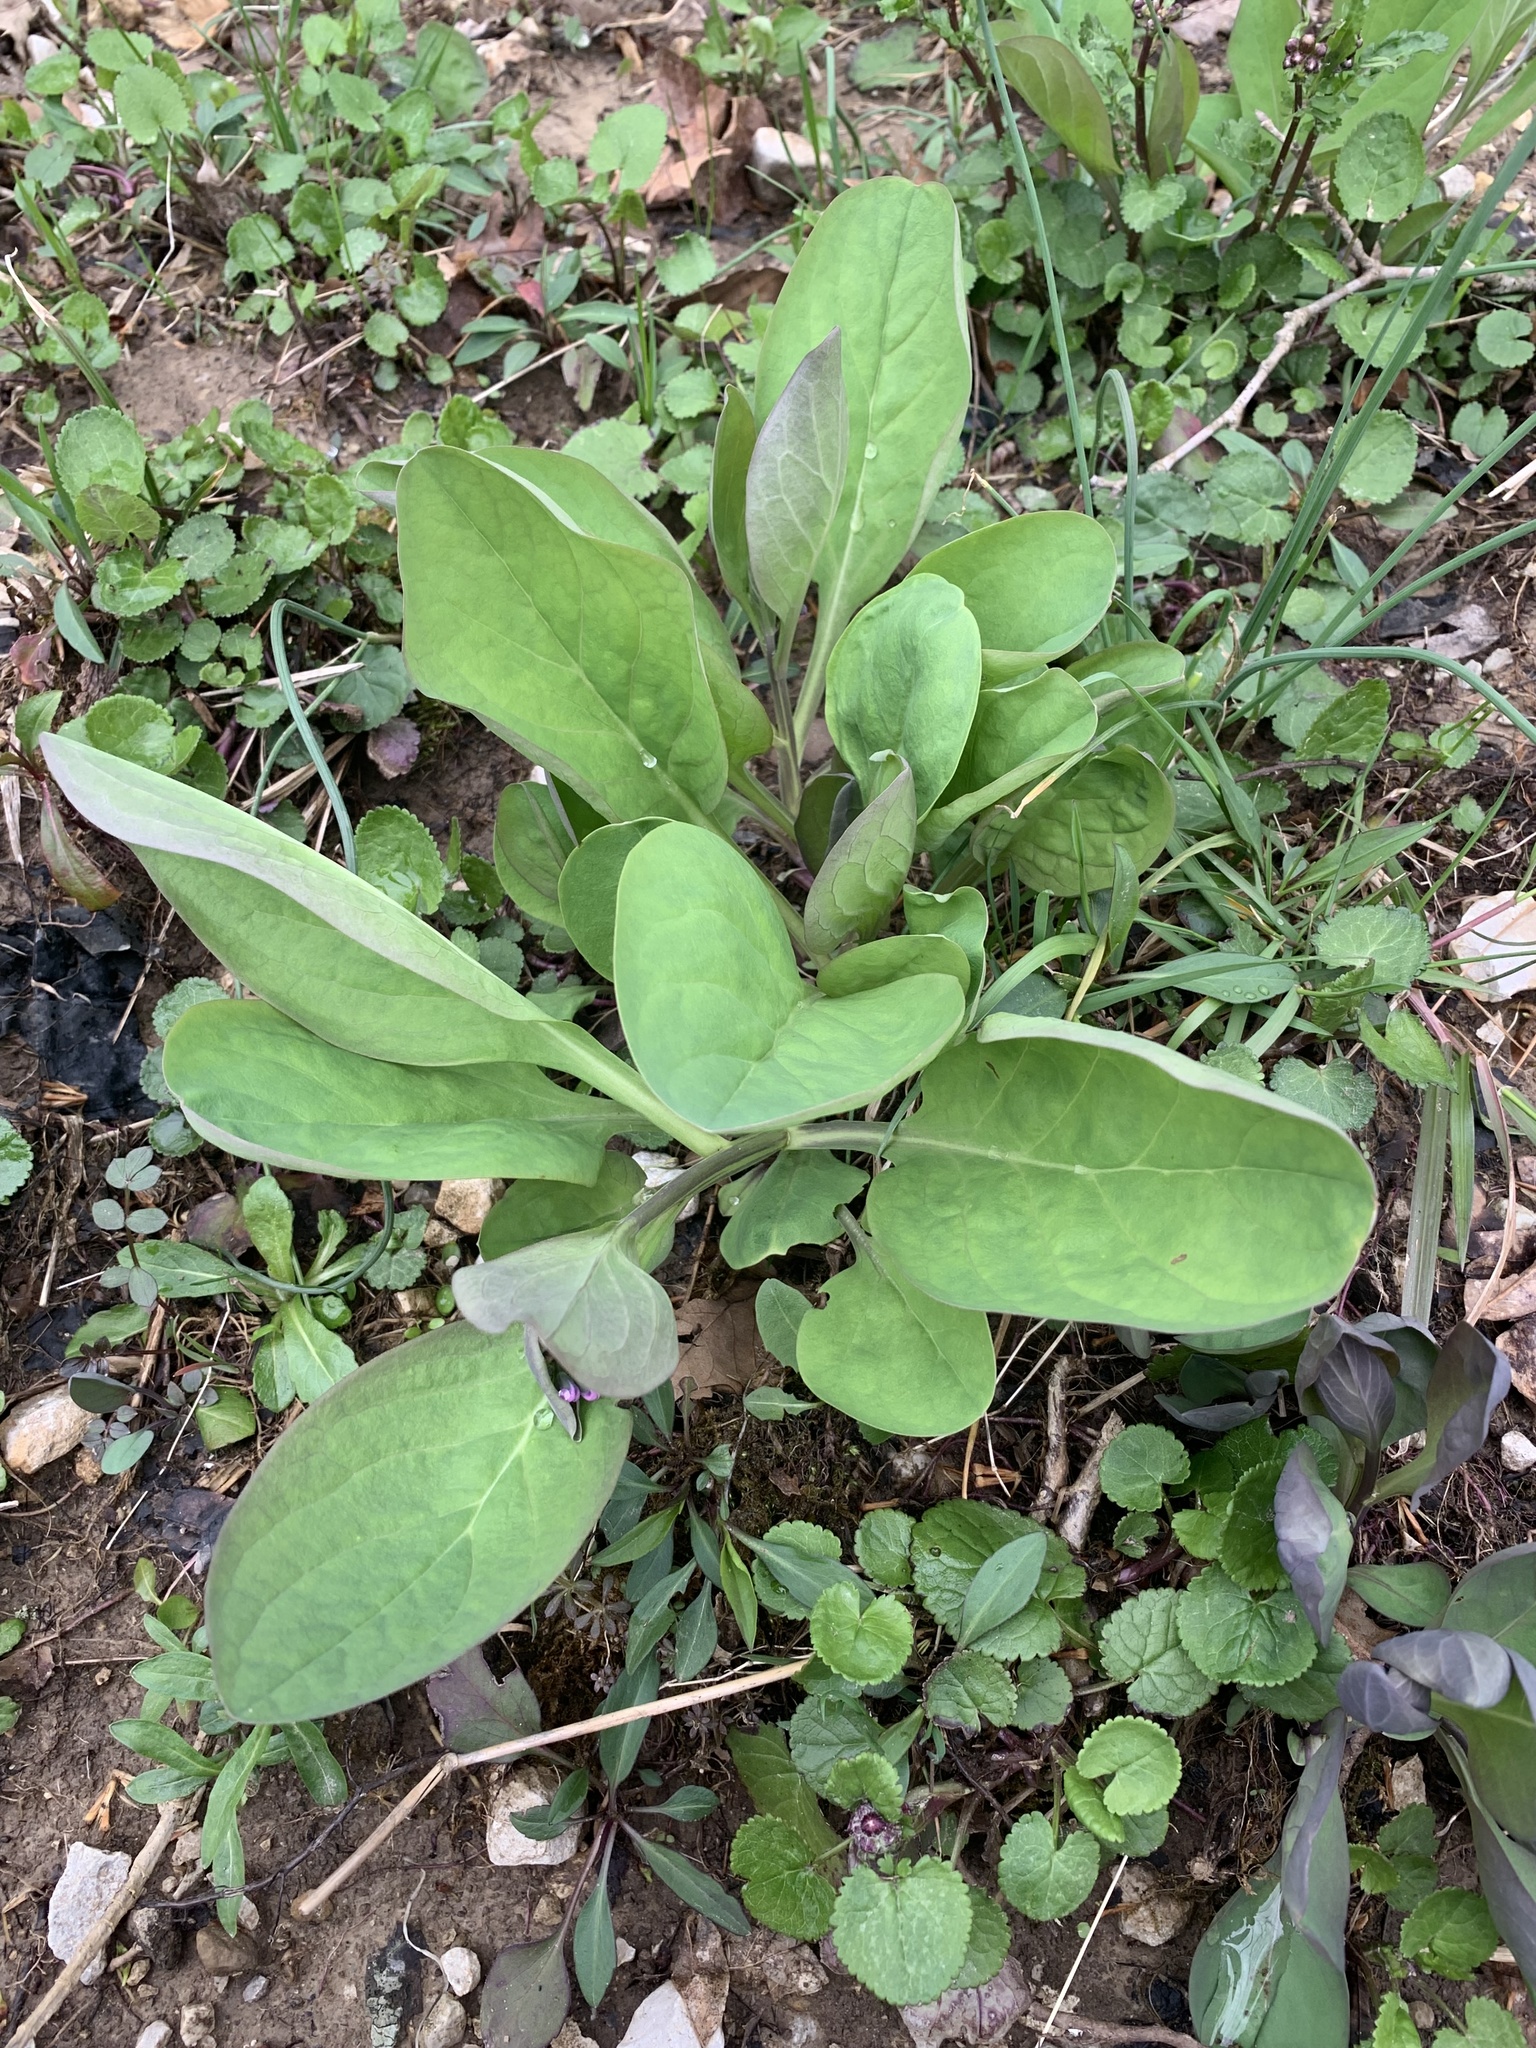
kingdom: Plantae
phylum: Tracheophyta
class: Magnoliopsida
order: Boraginales
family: Boraginaceae
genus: Mertensia
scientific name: Mertensia virginica
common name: Virginia bluebells
